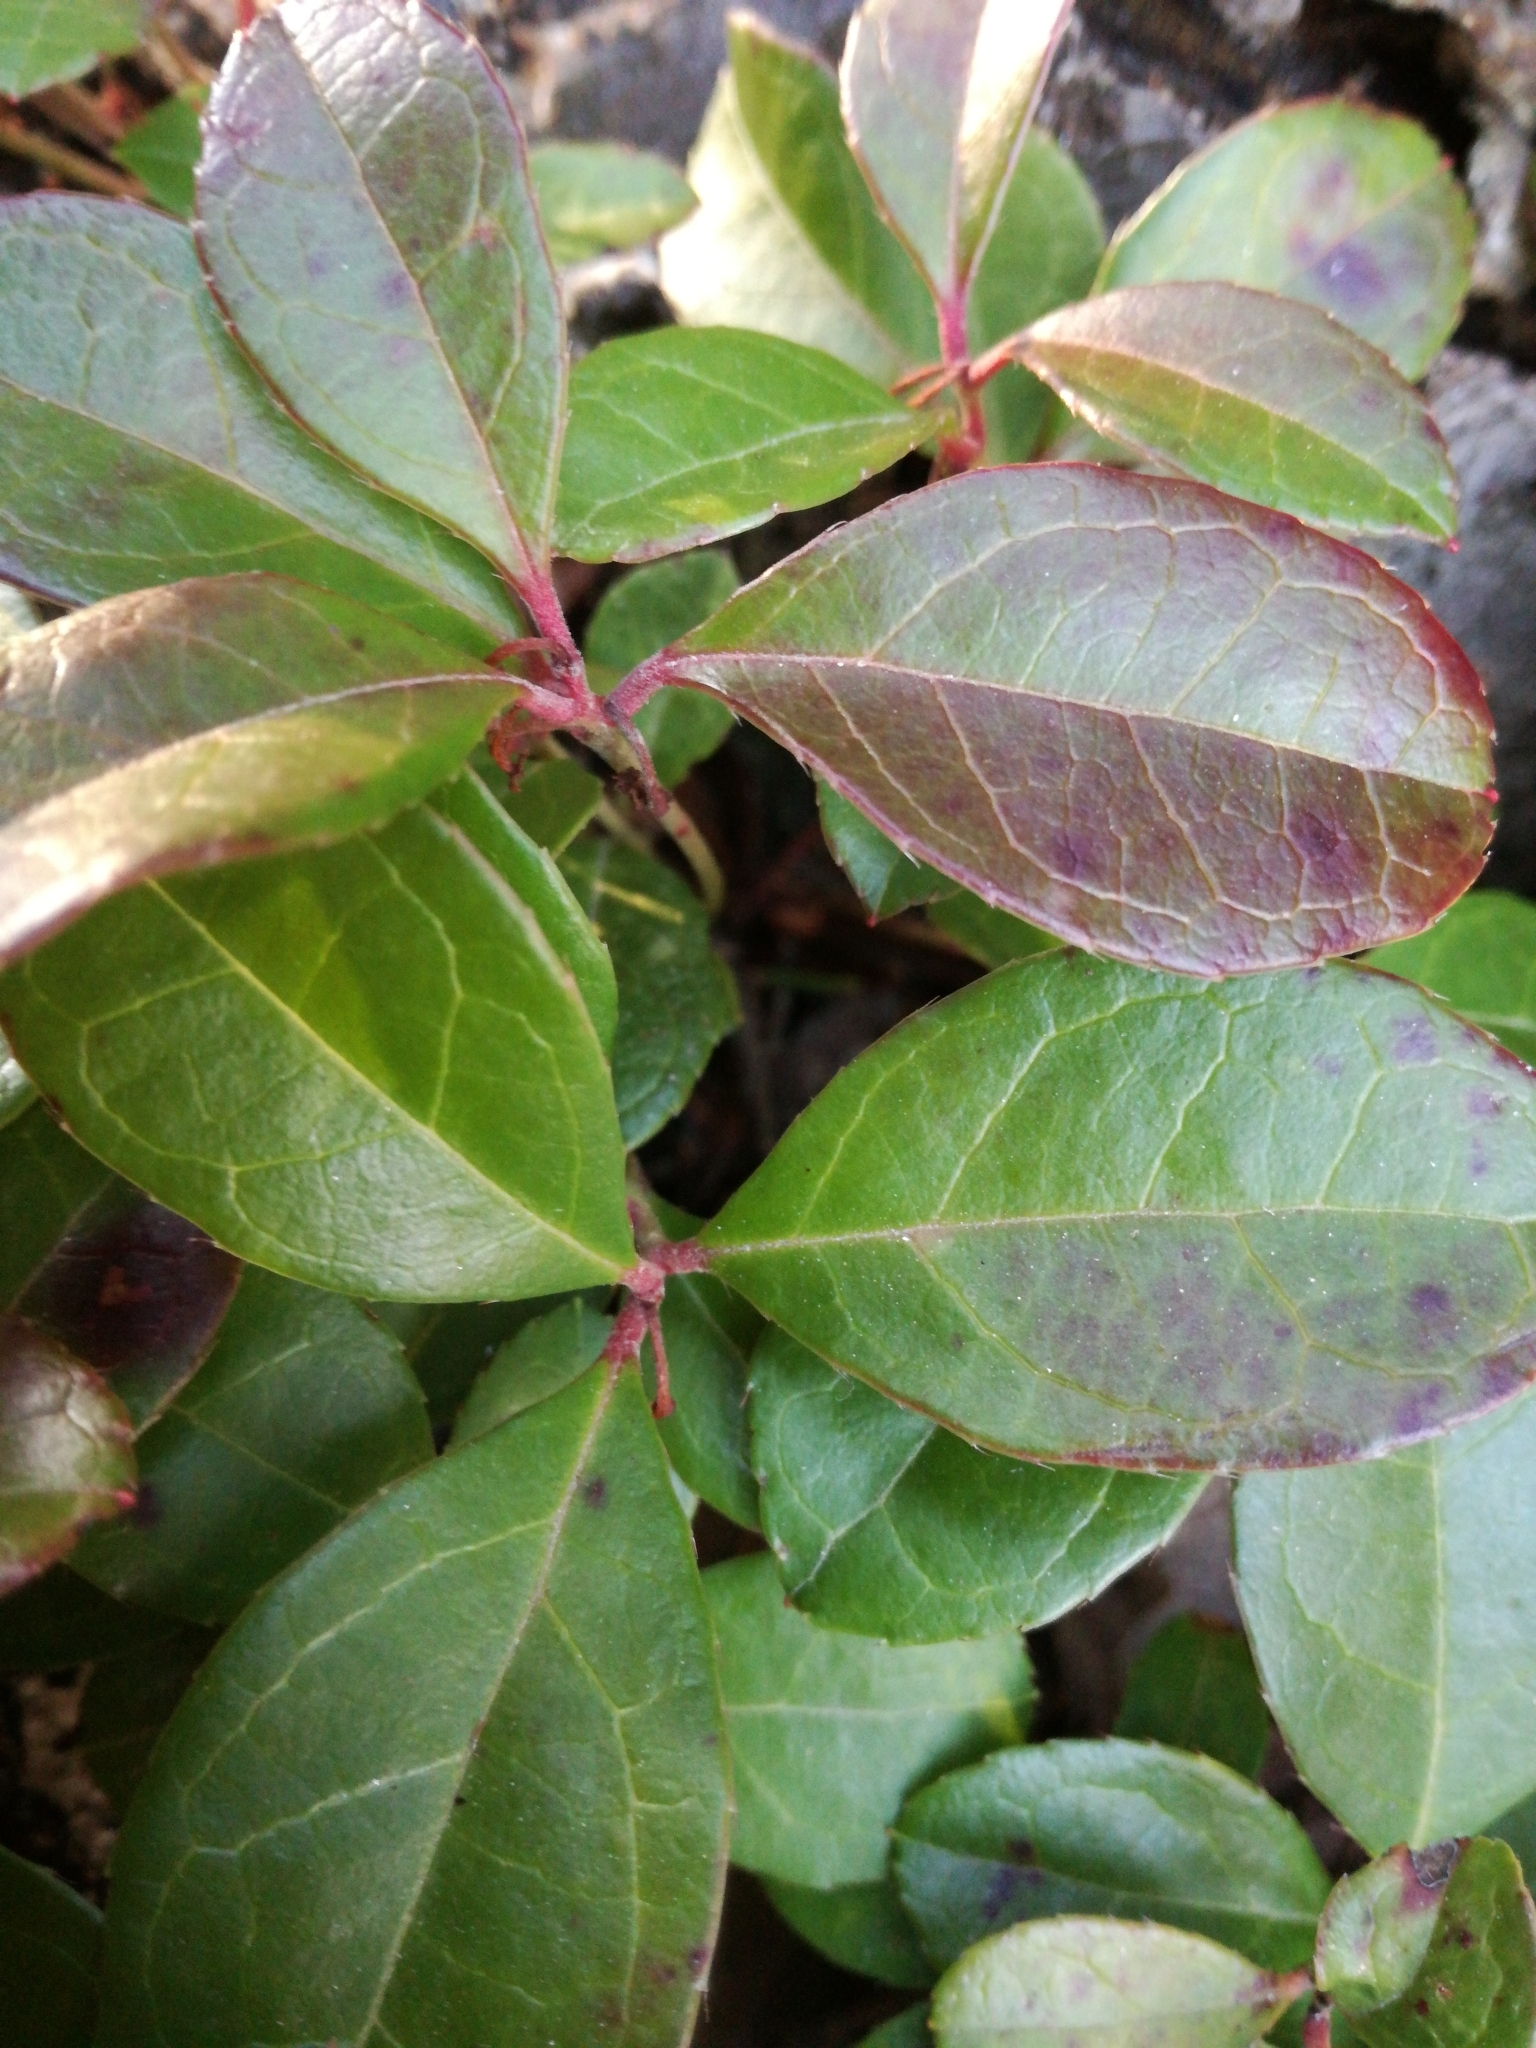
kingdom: Plantae
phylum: Tracheophyta
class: Magnoliopsida
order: Ericales
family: Ericaceae
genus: Gaultheria
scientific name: Gaultheria procumbens
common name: Checkerberry
